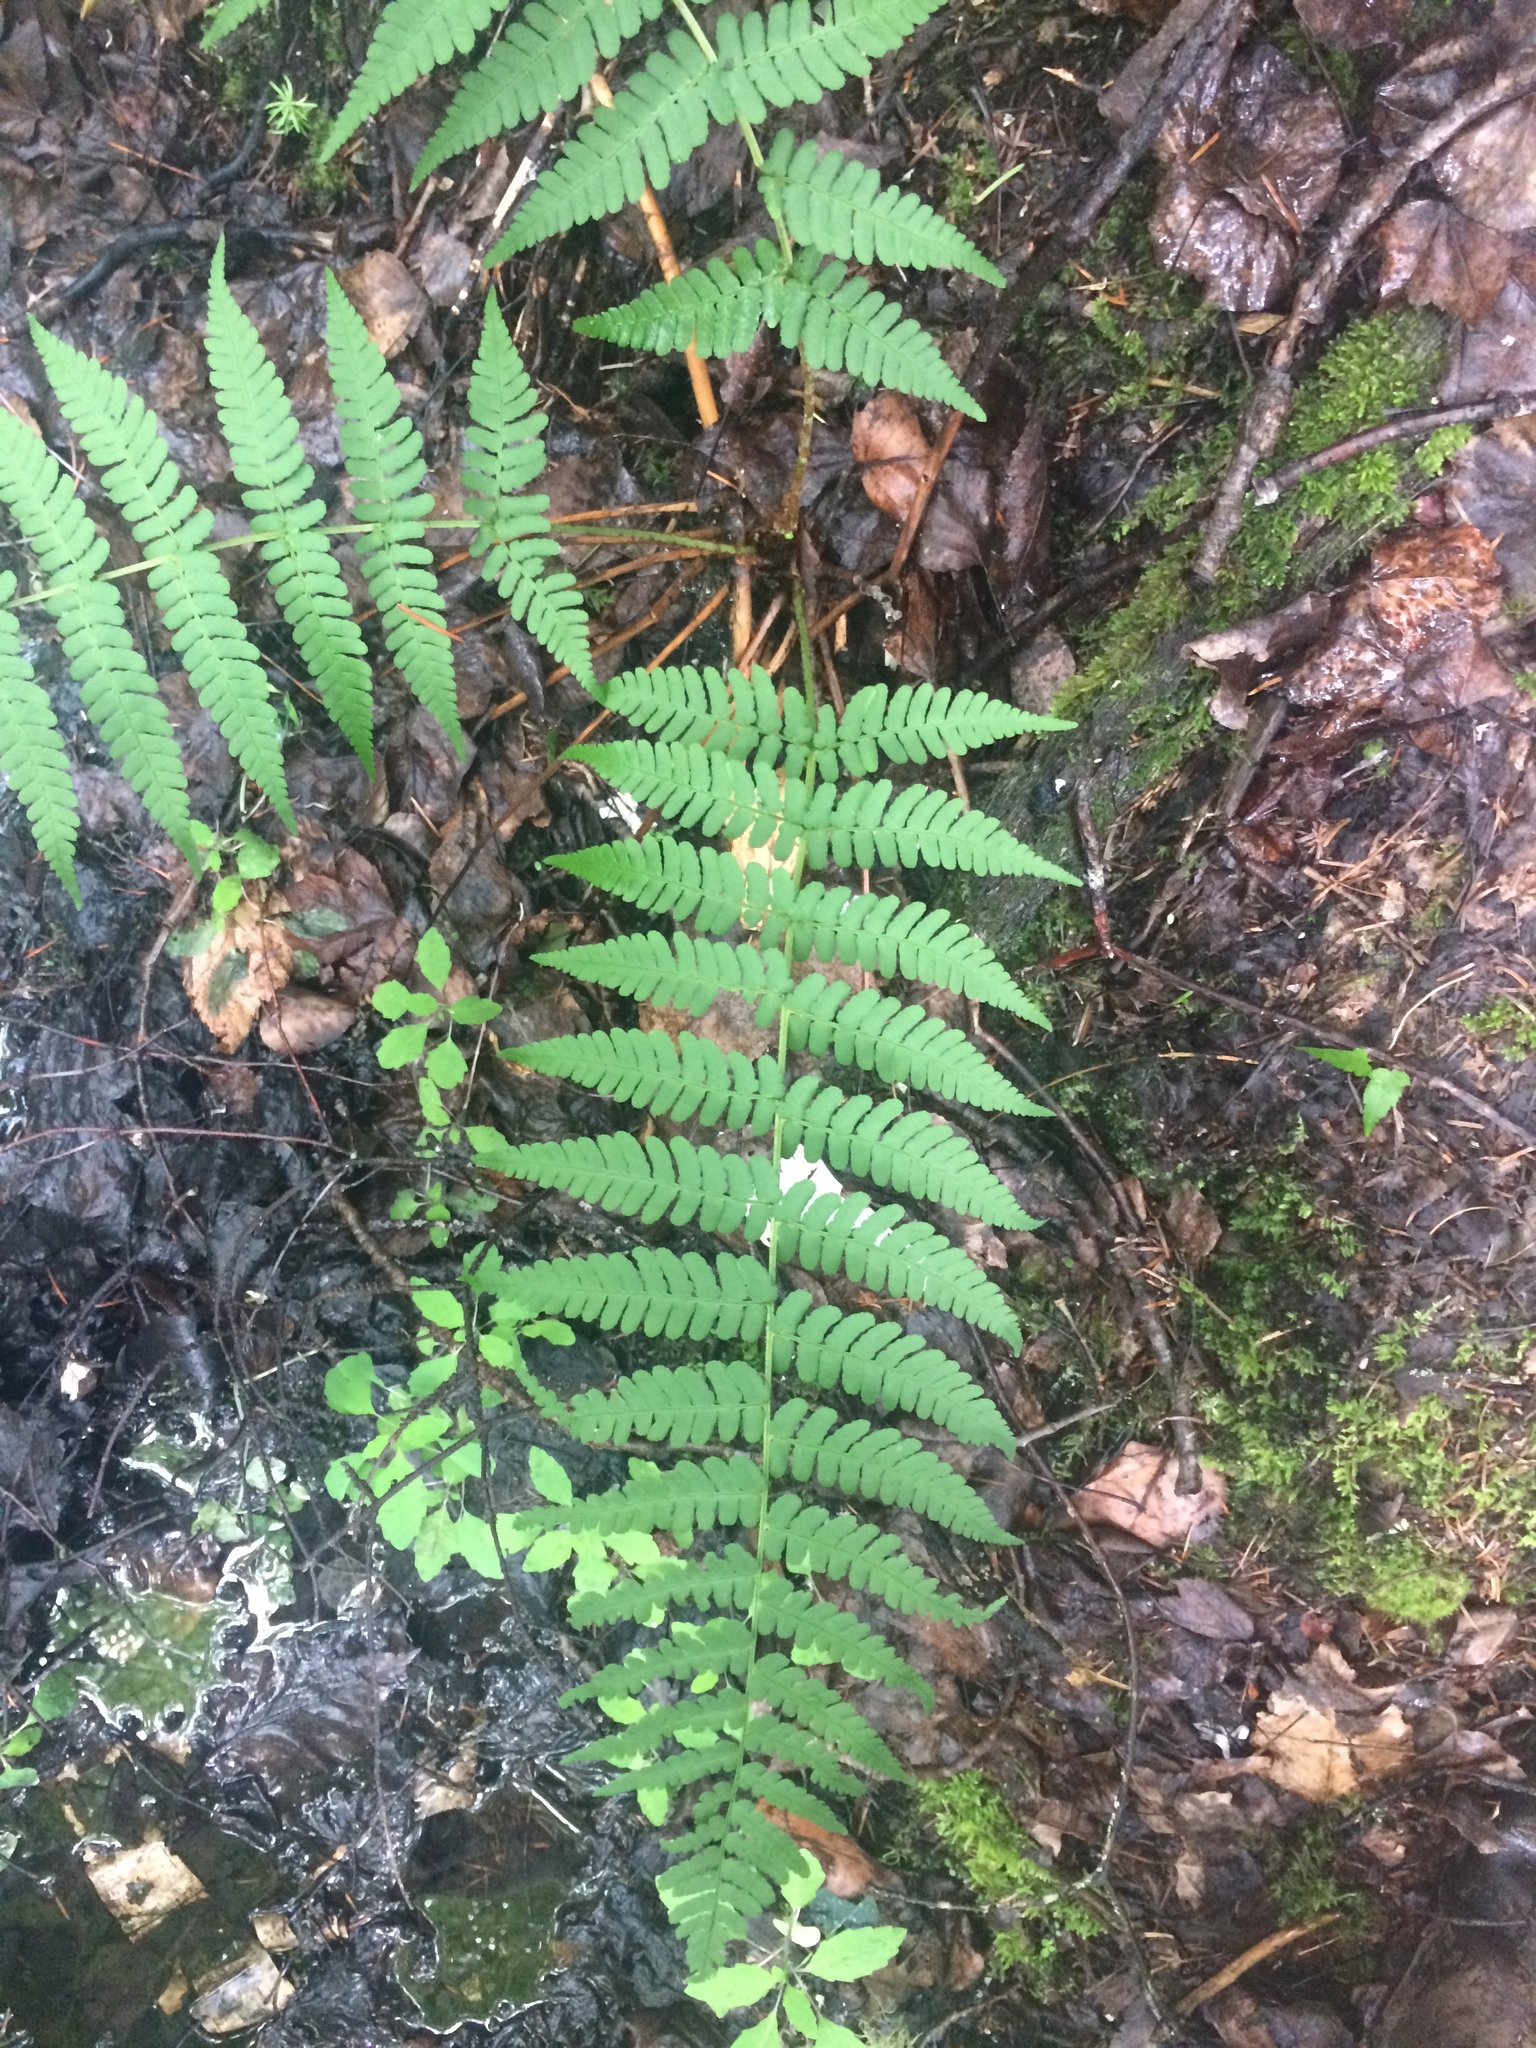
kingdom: Plantae
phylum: Tracheophyta
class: Polypodiopsida
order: Polypodiales
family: Dryopteridaceae
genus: Dryopteris
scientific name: Dryopteris marginalis
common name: Marginal wood fern
